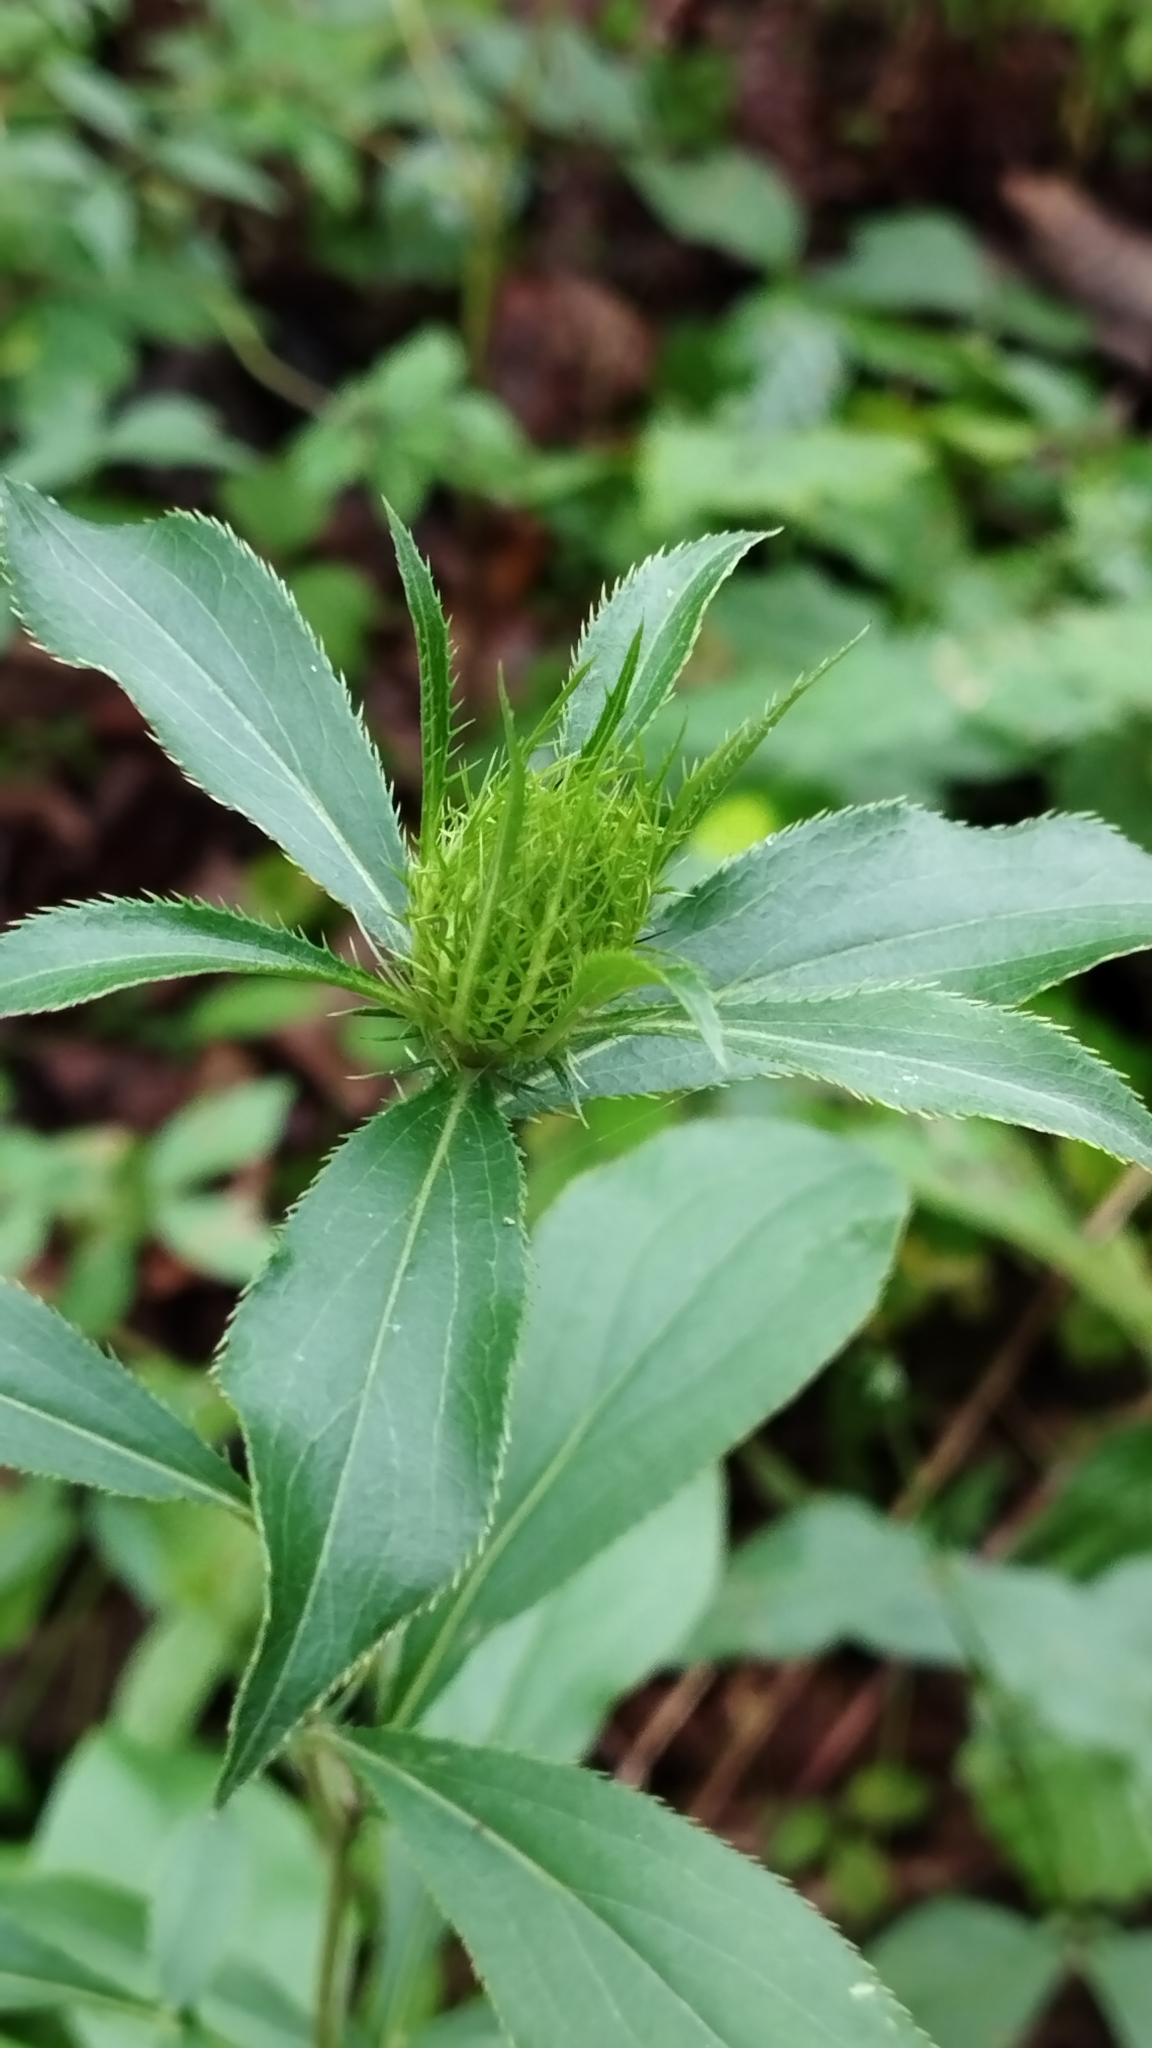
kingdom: Plantae
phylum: Tracheophyta
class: Magnoliopsida
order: Asterales
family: Asteraceae
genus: Atractylodes
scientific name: Atractylodes lancea
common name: Southern tsangshu
